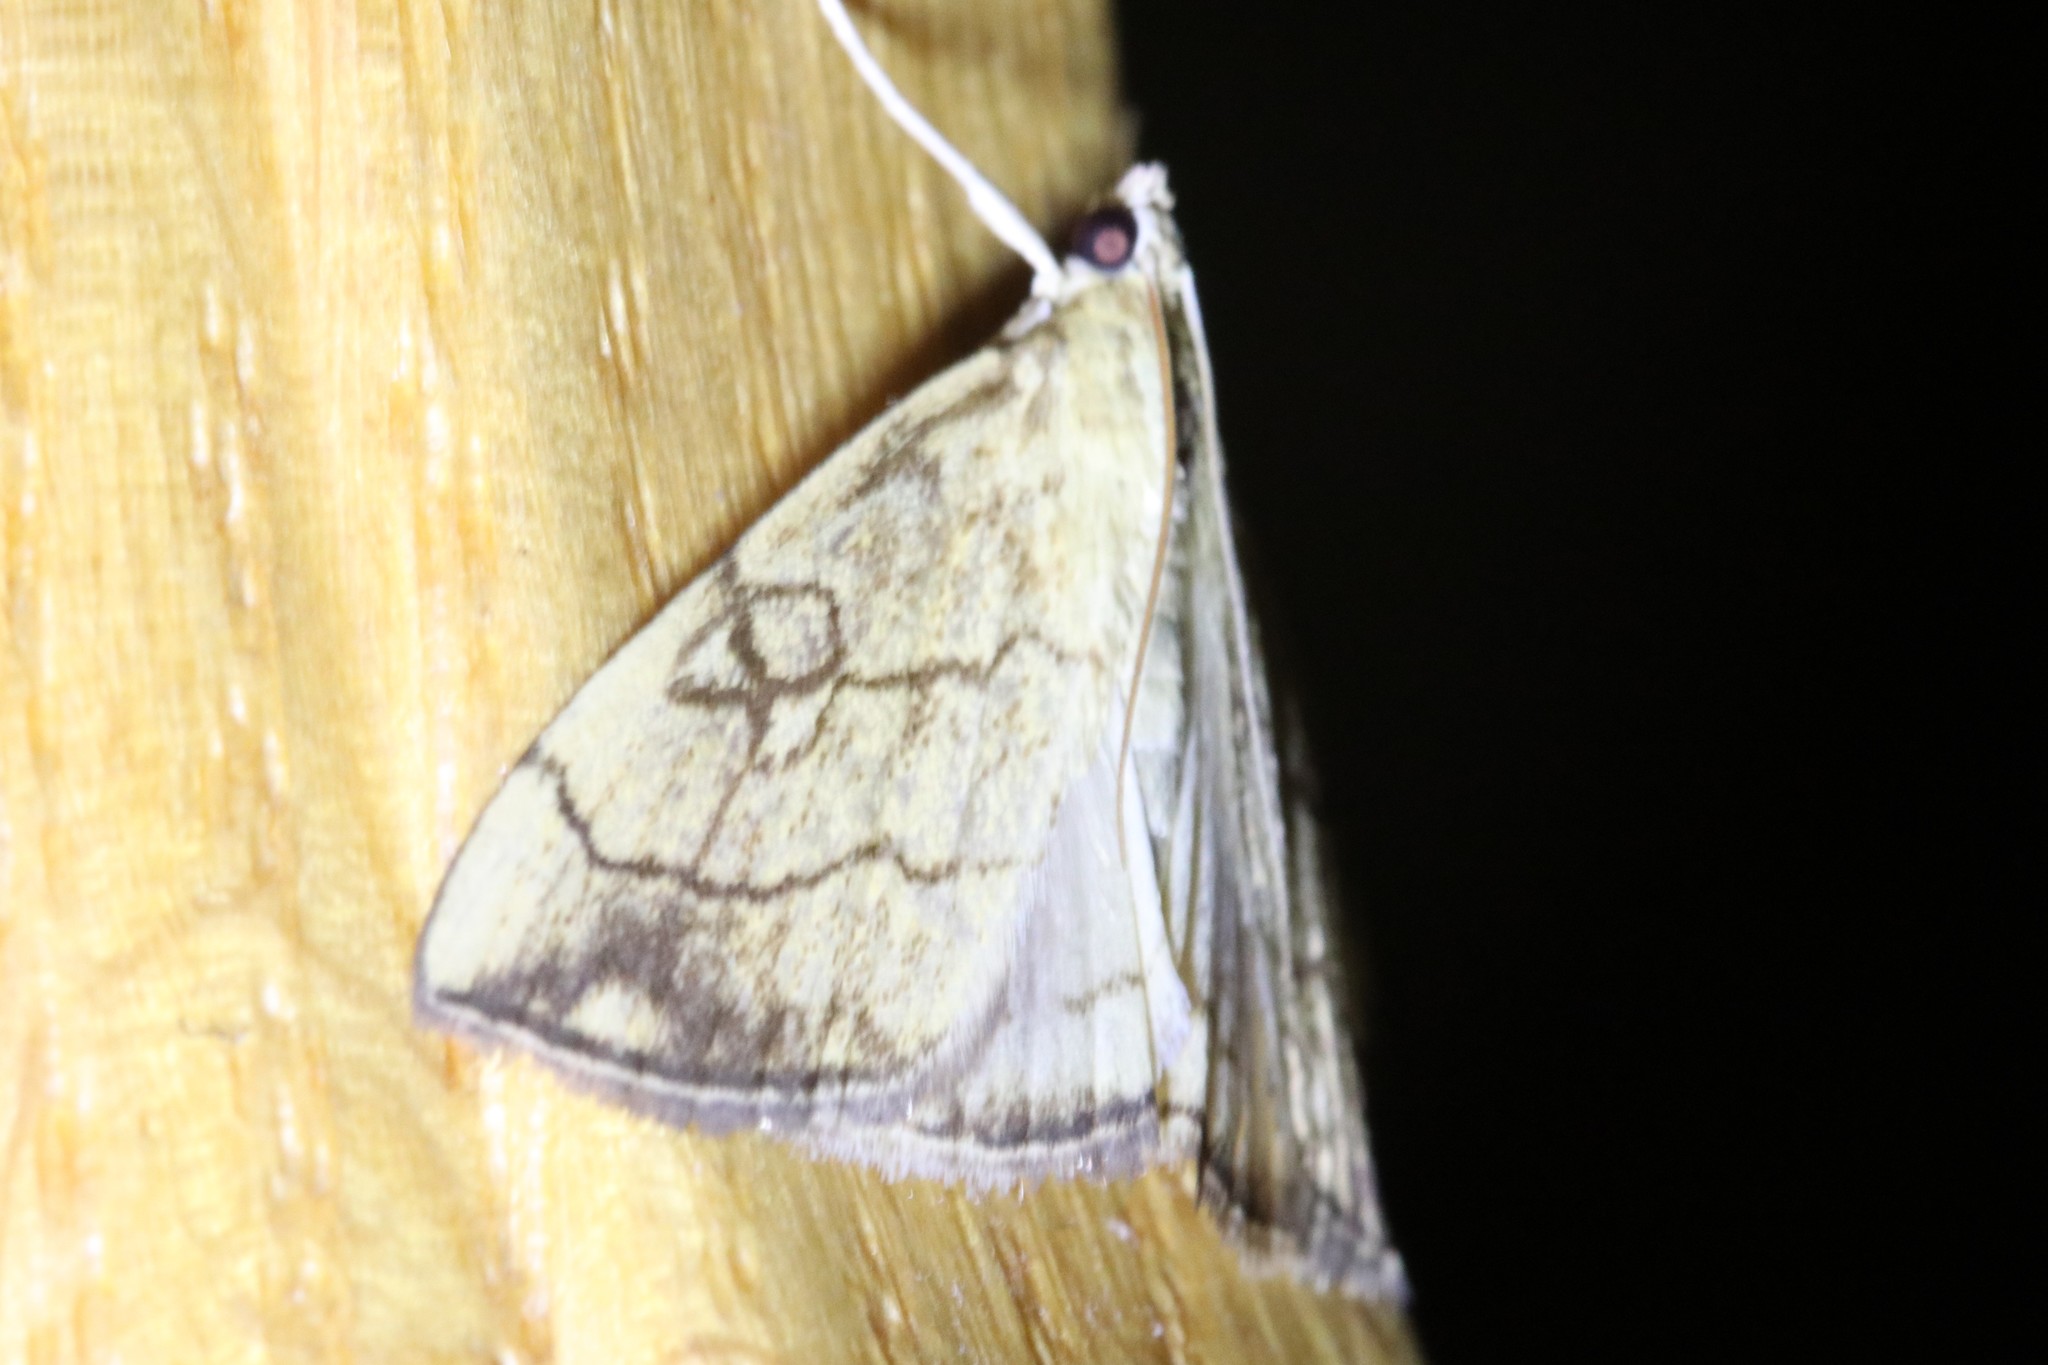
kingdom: Animalia
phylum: Arthropoda
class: Insecta
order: Lepidoptera
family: Crambidae
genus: Evergestis
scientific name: Evergestis pallidata
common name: Chequered pearl
